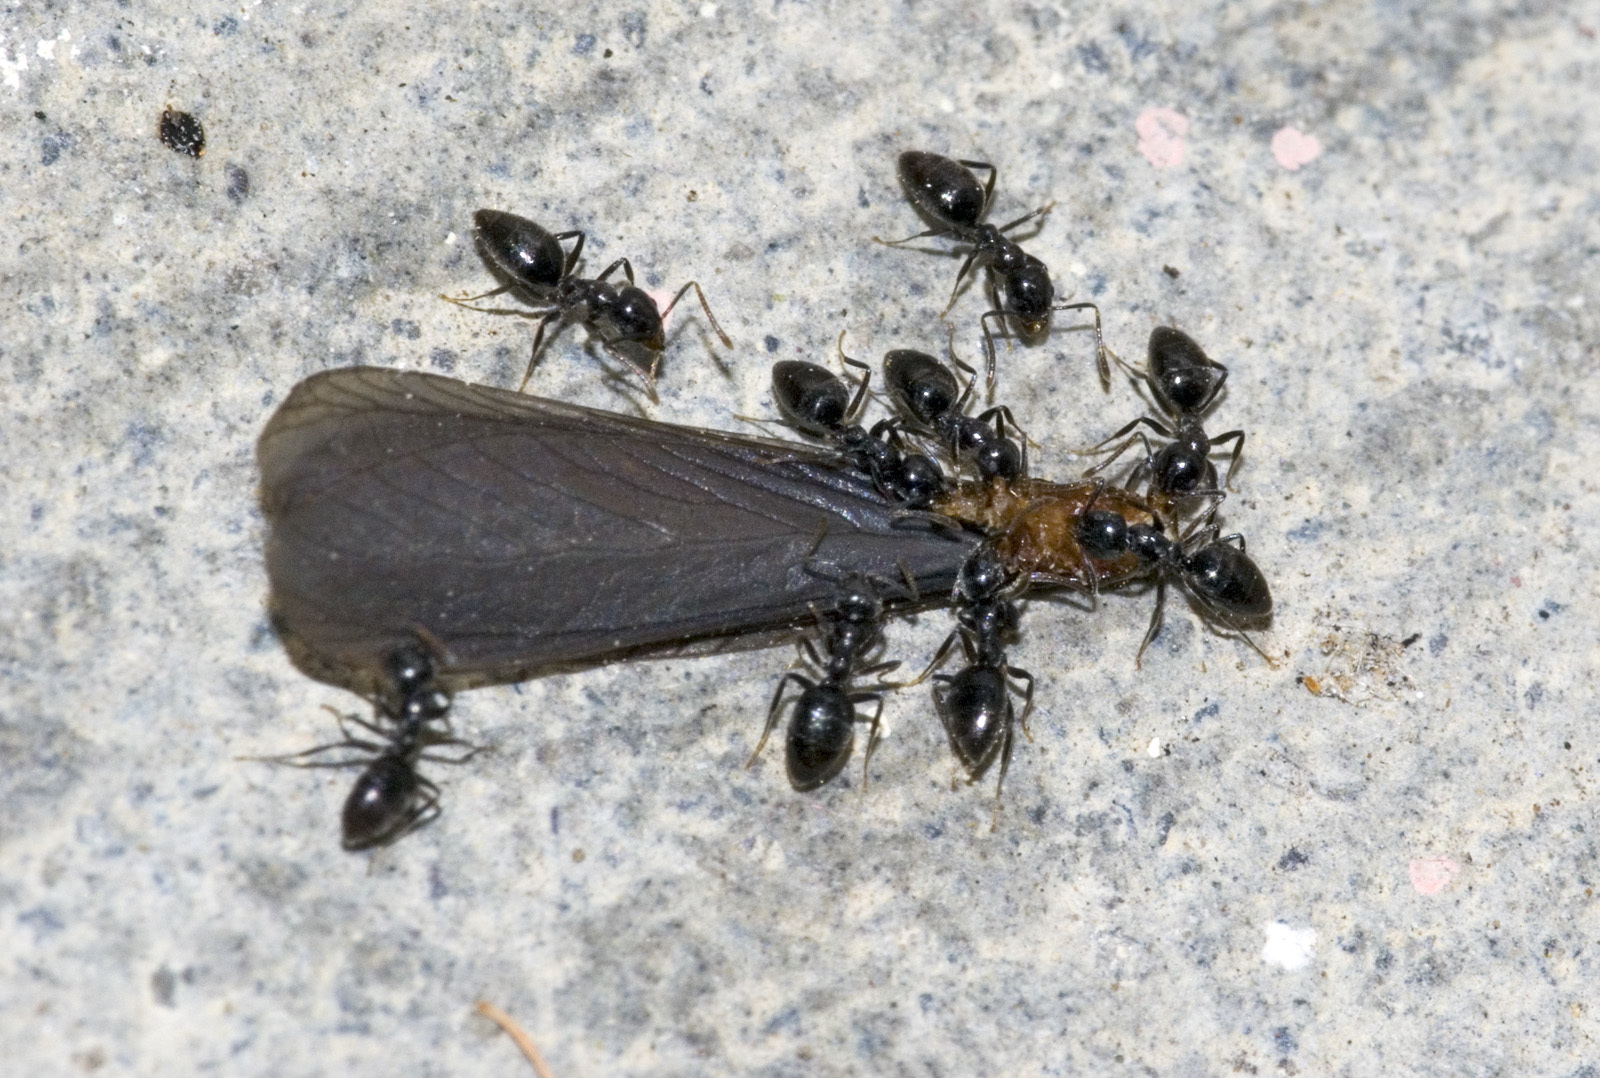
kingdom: Animalia
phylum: Arthropoda
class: Insecta
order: Hymenoptera
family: Formicidae
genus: Technomyrmex
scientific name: Technomyrmex jocosus
